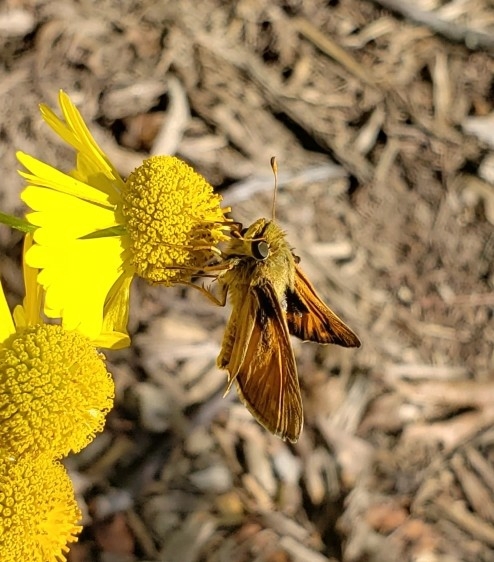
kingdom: Animalia
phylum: Arthropoda
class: Insecta
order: Lepidoptera
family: Hesperiidae
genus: Atalopedes
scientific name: Atalopedes
